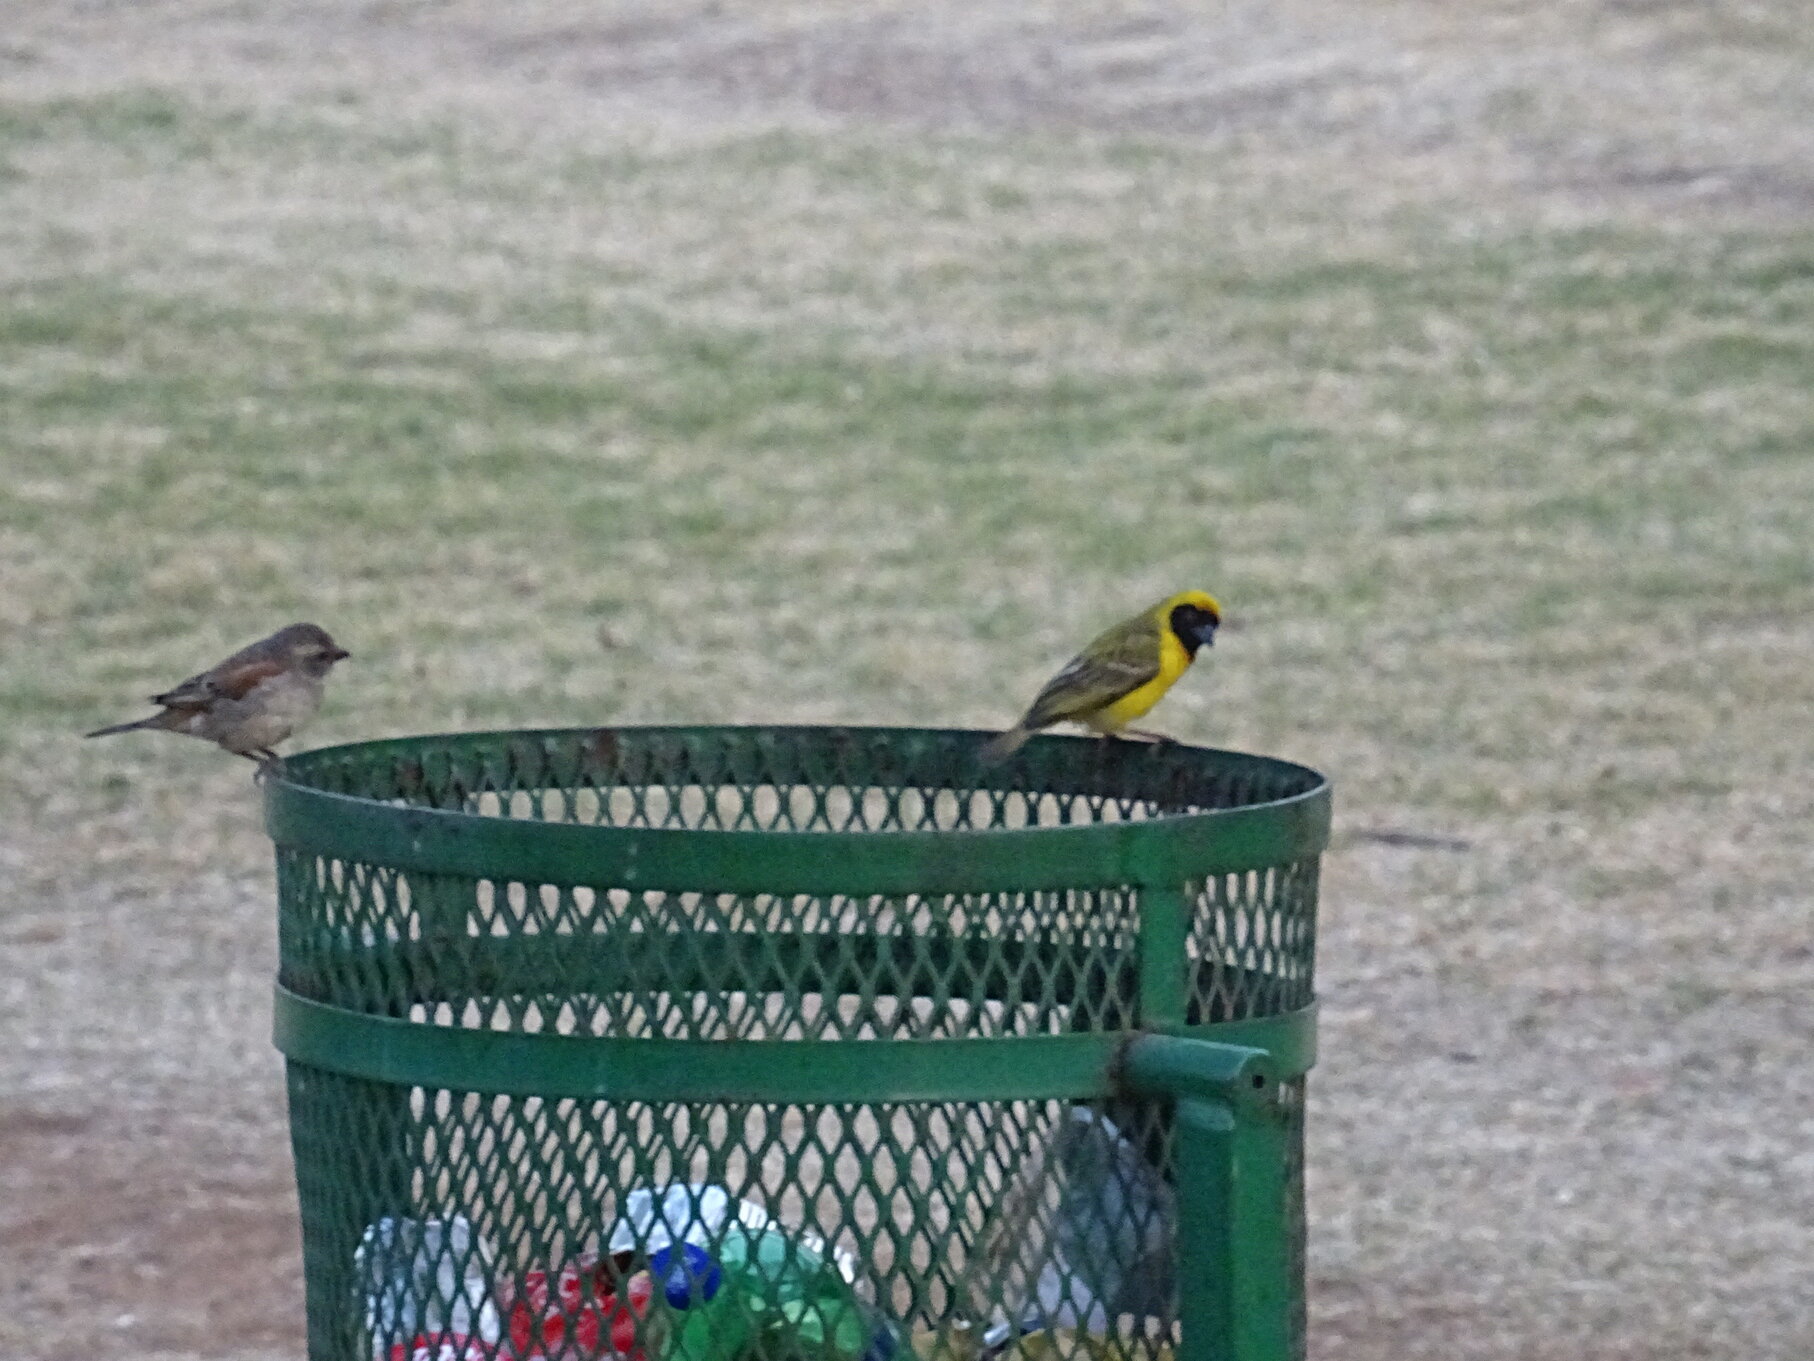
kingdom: Animalia
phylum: Chordata
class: Aves
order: Passeriformes
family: Ploceidae
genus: Ploceus
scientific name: Ploceus velatus
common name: Southern masked weaver
